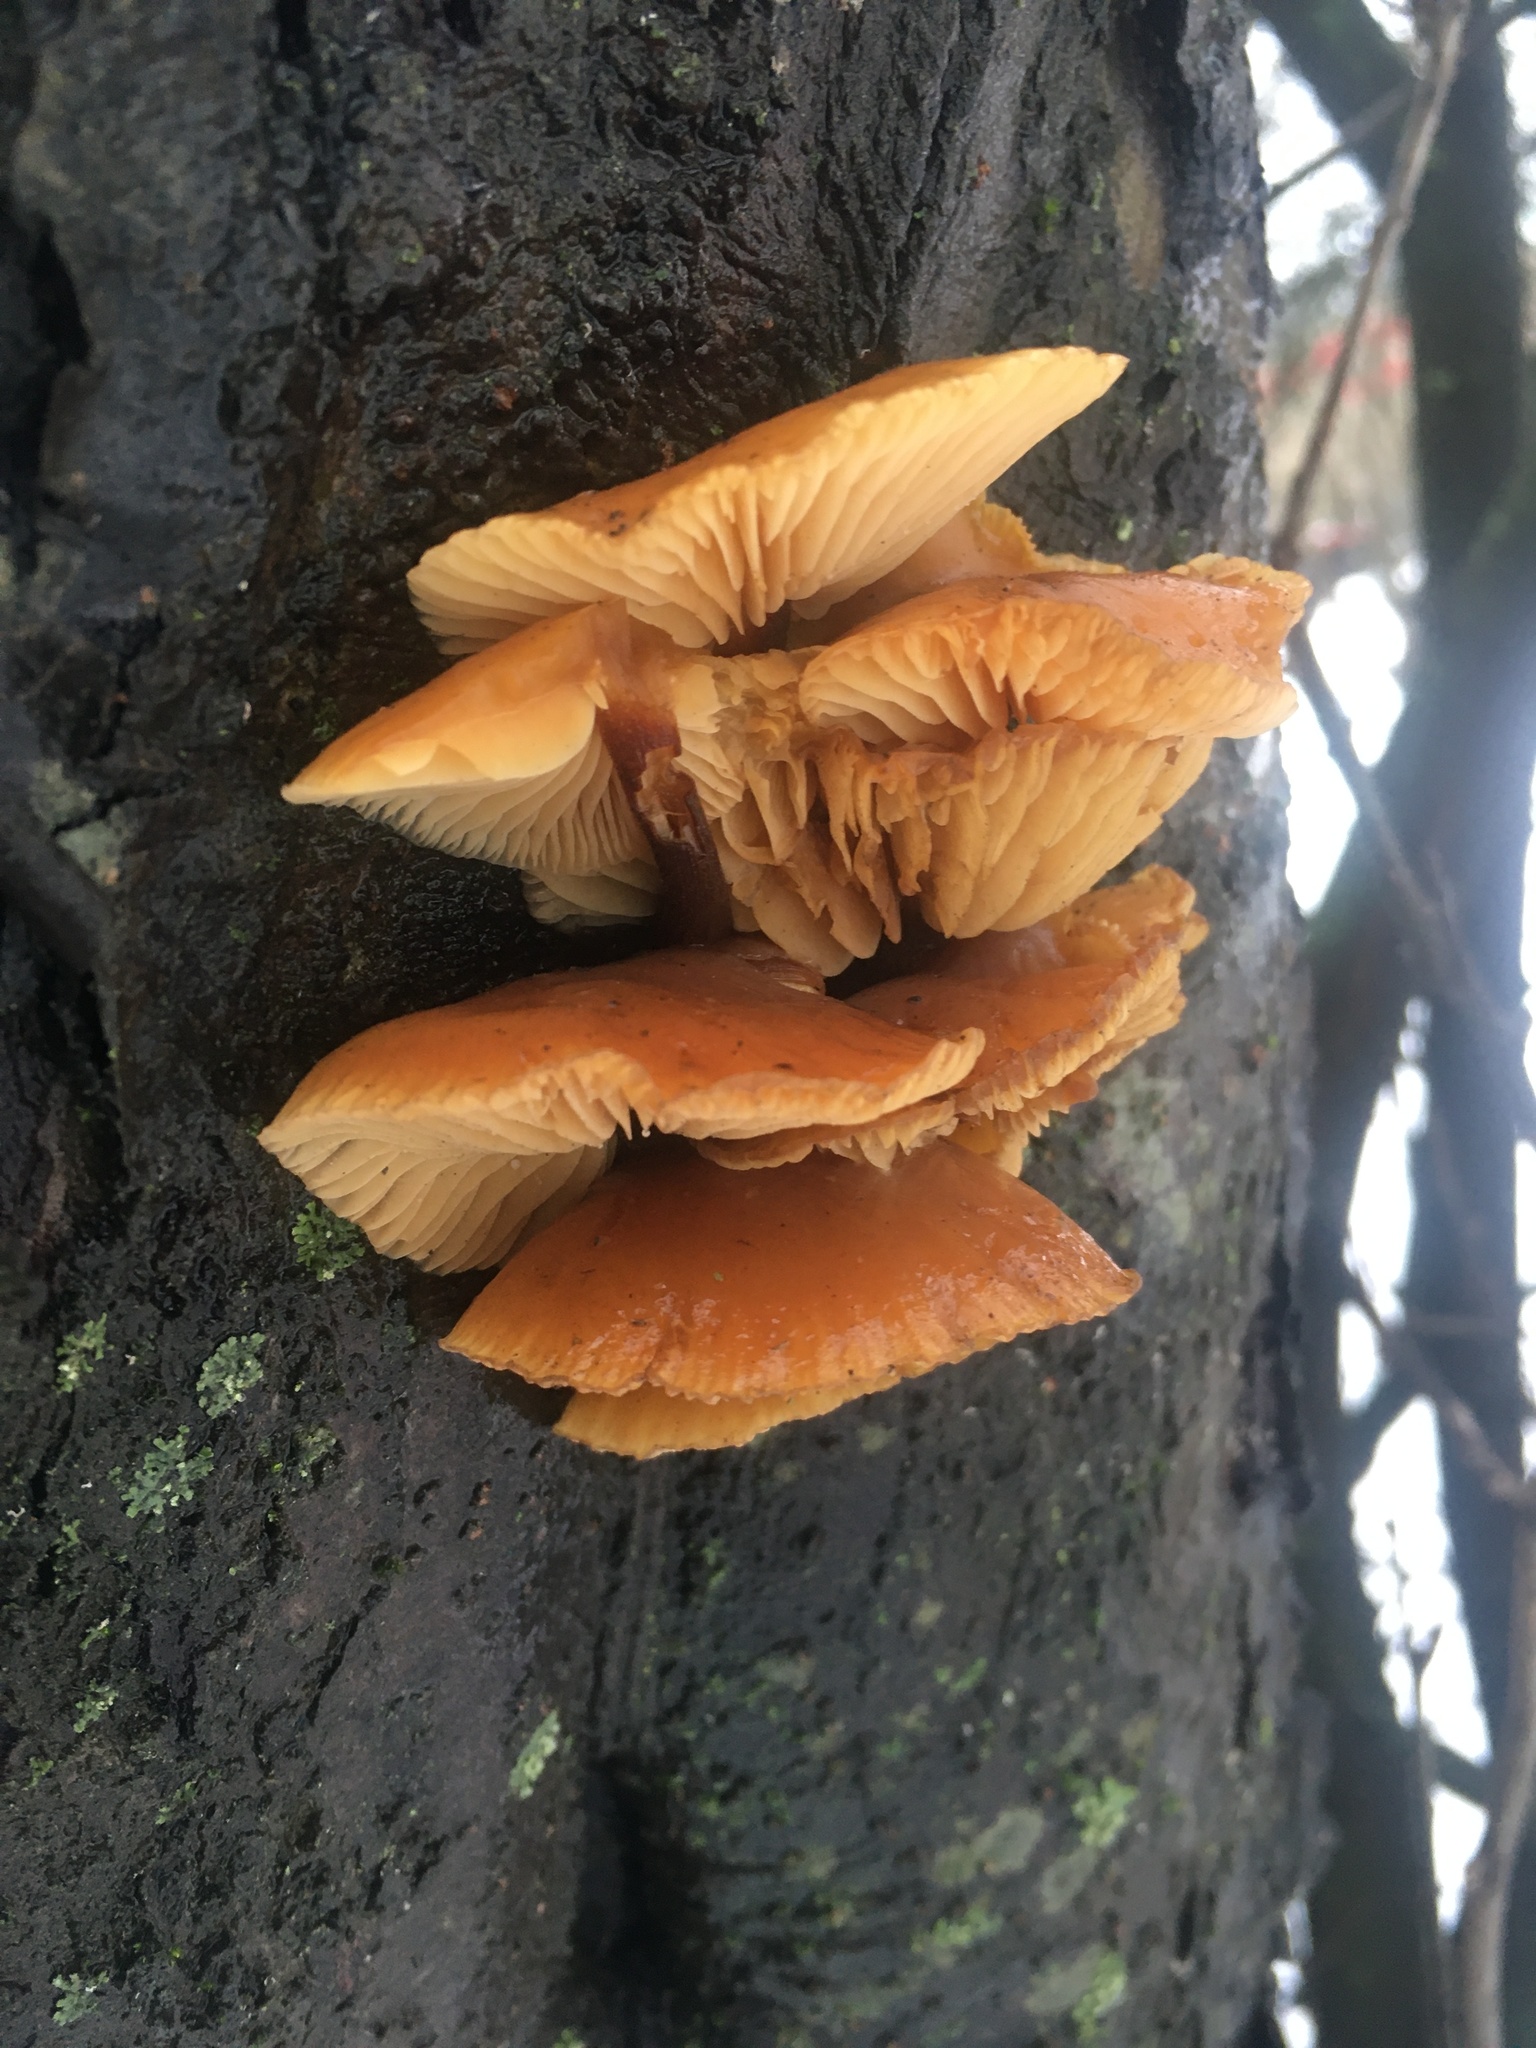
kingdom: Fungi
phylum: Basidiomycota
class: Agaricomycetes
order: Agaricales
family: Physalacriaceae
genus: Flammulina
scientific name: Flammulina
